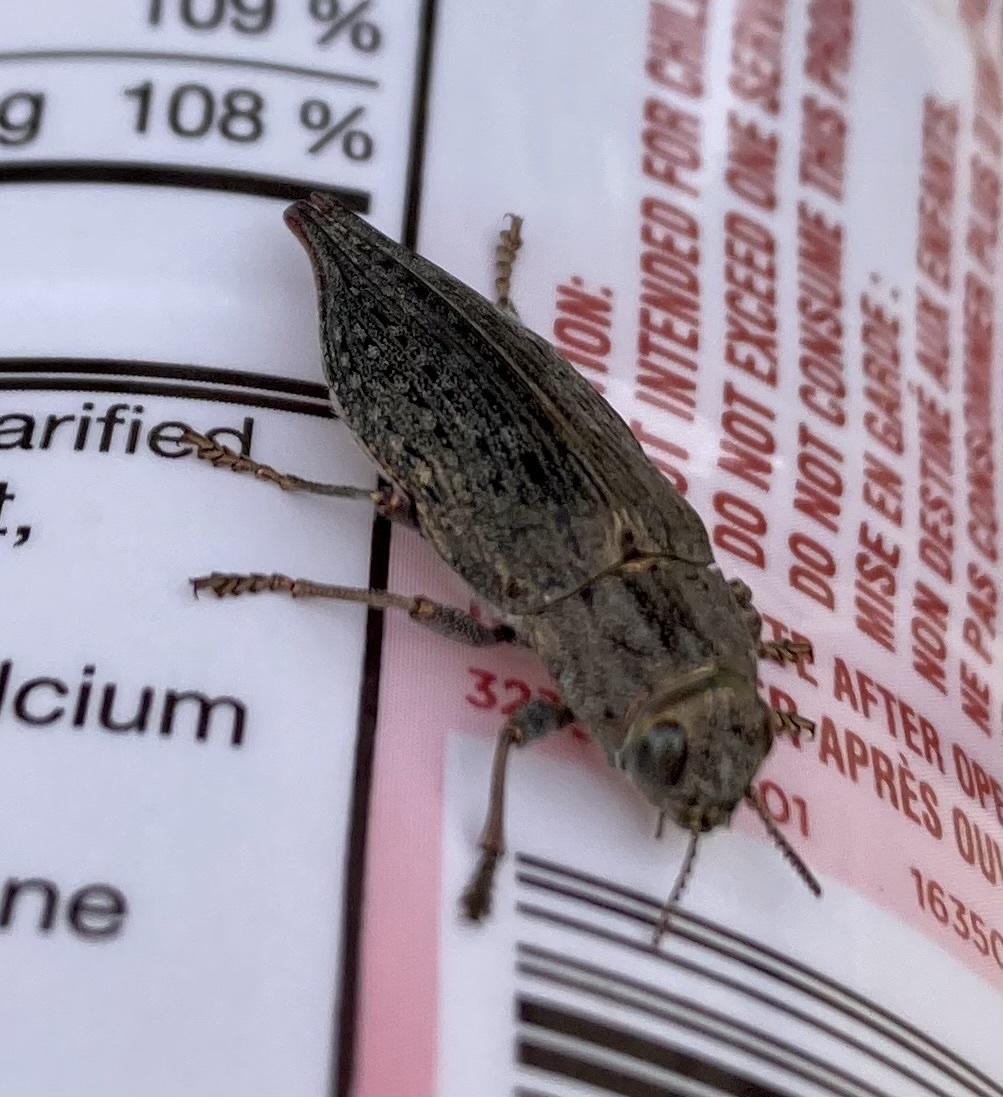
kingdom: Animalia
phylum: Arthropoda
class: Insecta
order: Coleoptera
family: Buprestidae
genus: Dicerca
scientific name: Dicerca tenebrica
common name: Flat-headed poplar borer
